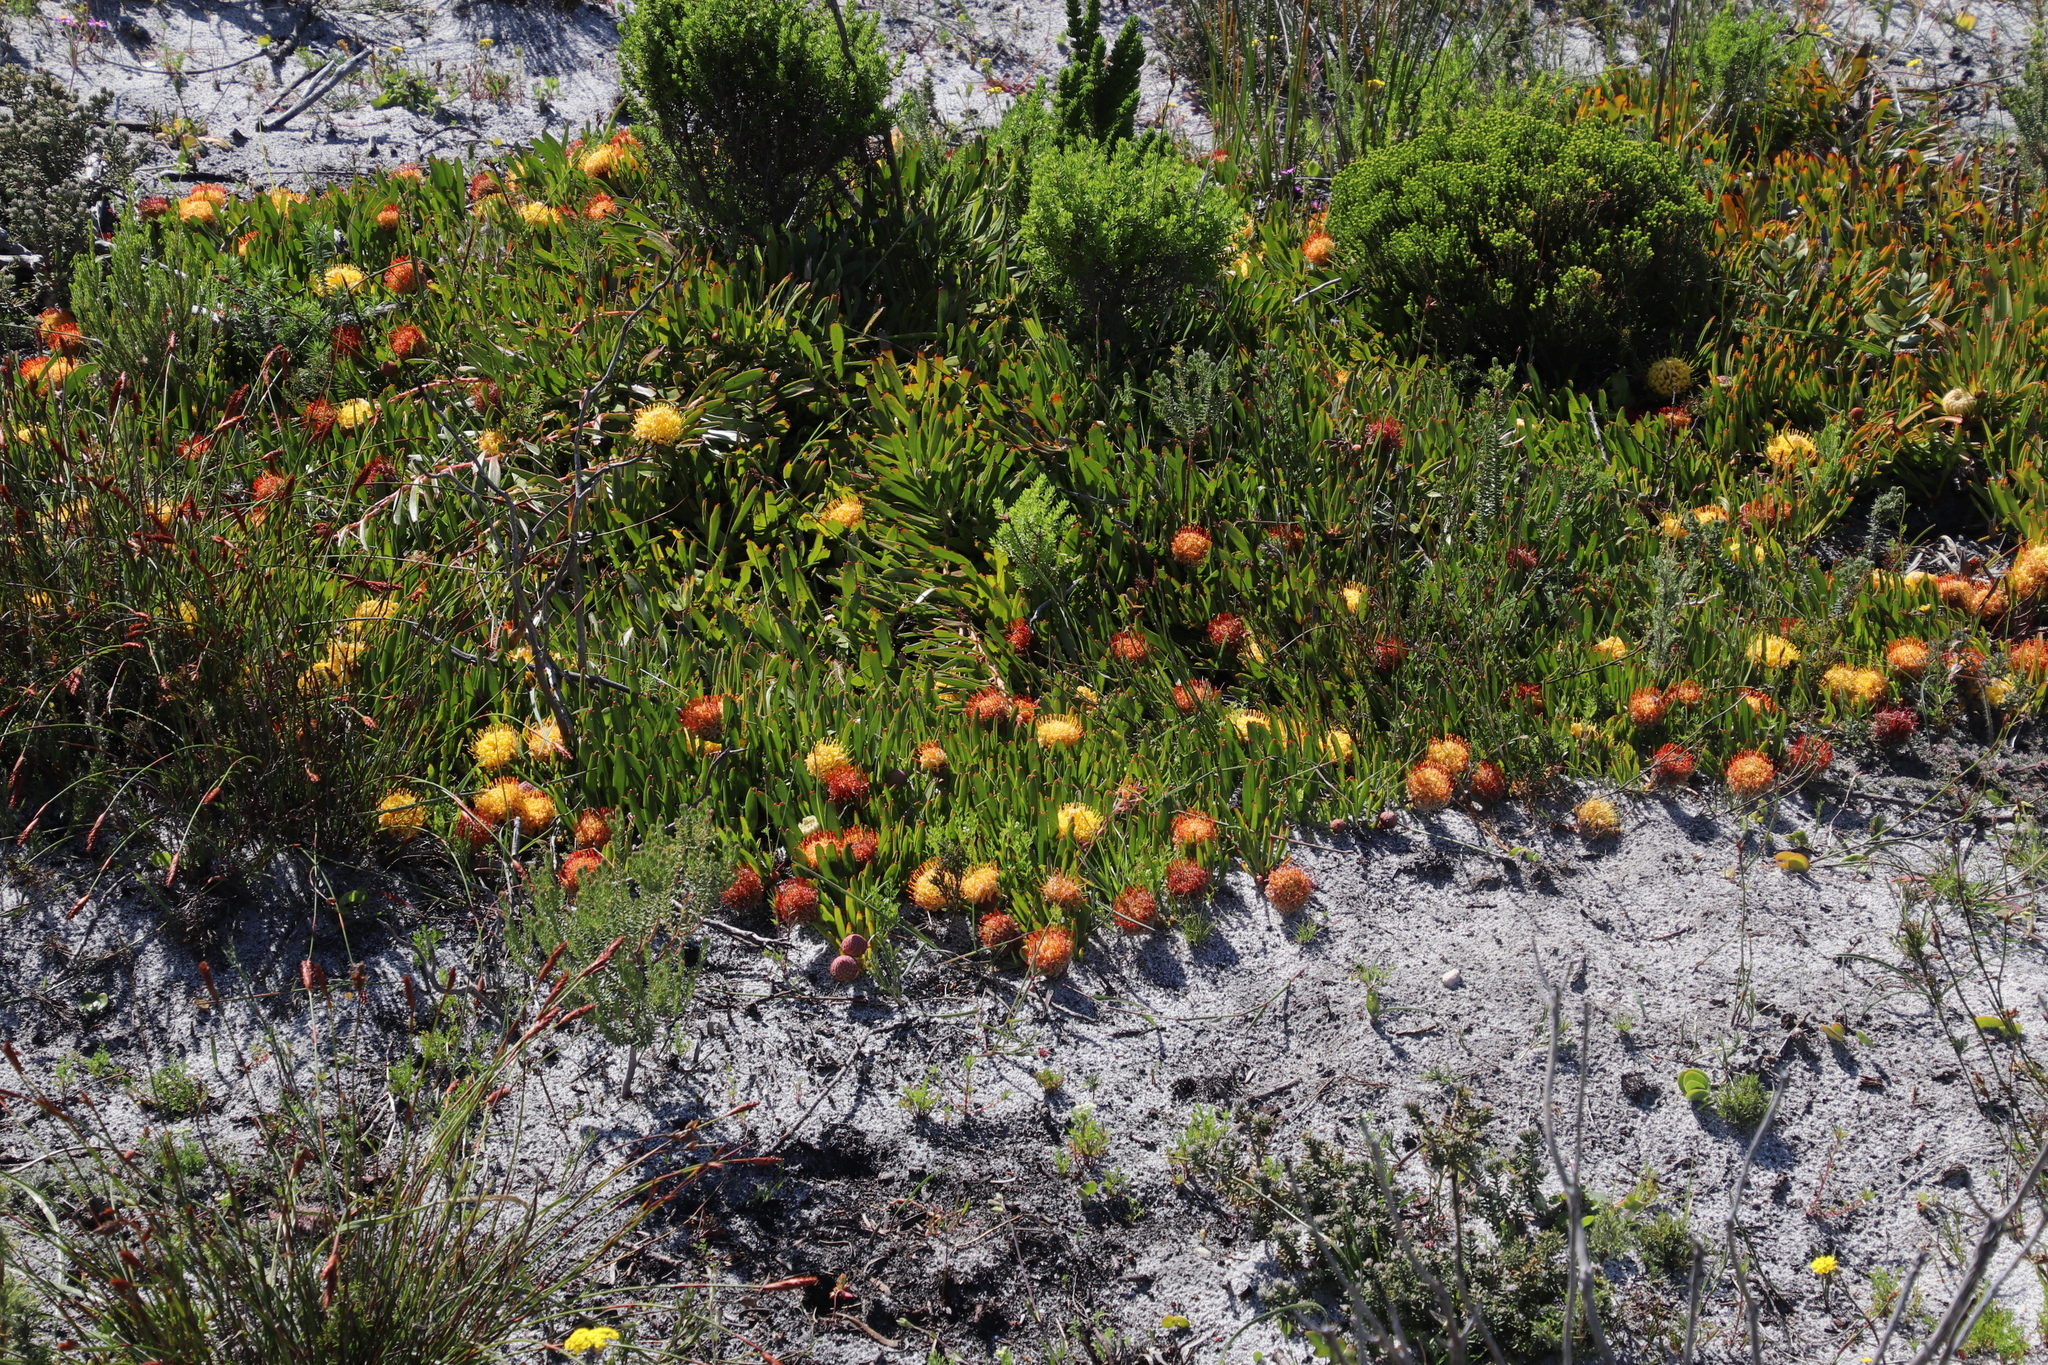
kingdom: Plantae
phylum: Tracheophyta
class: Magnoliopsida
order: Proteales
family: Proteaceae
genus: Leucospermum
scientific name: Leucospermum hypophyllocarpodendron
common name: Snakestem pincushion
